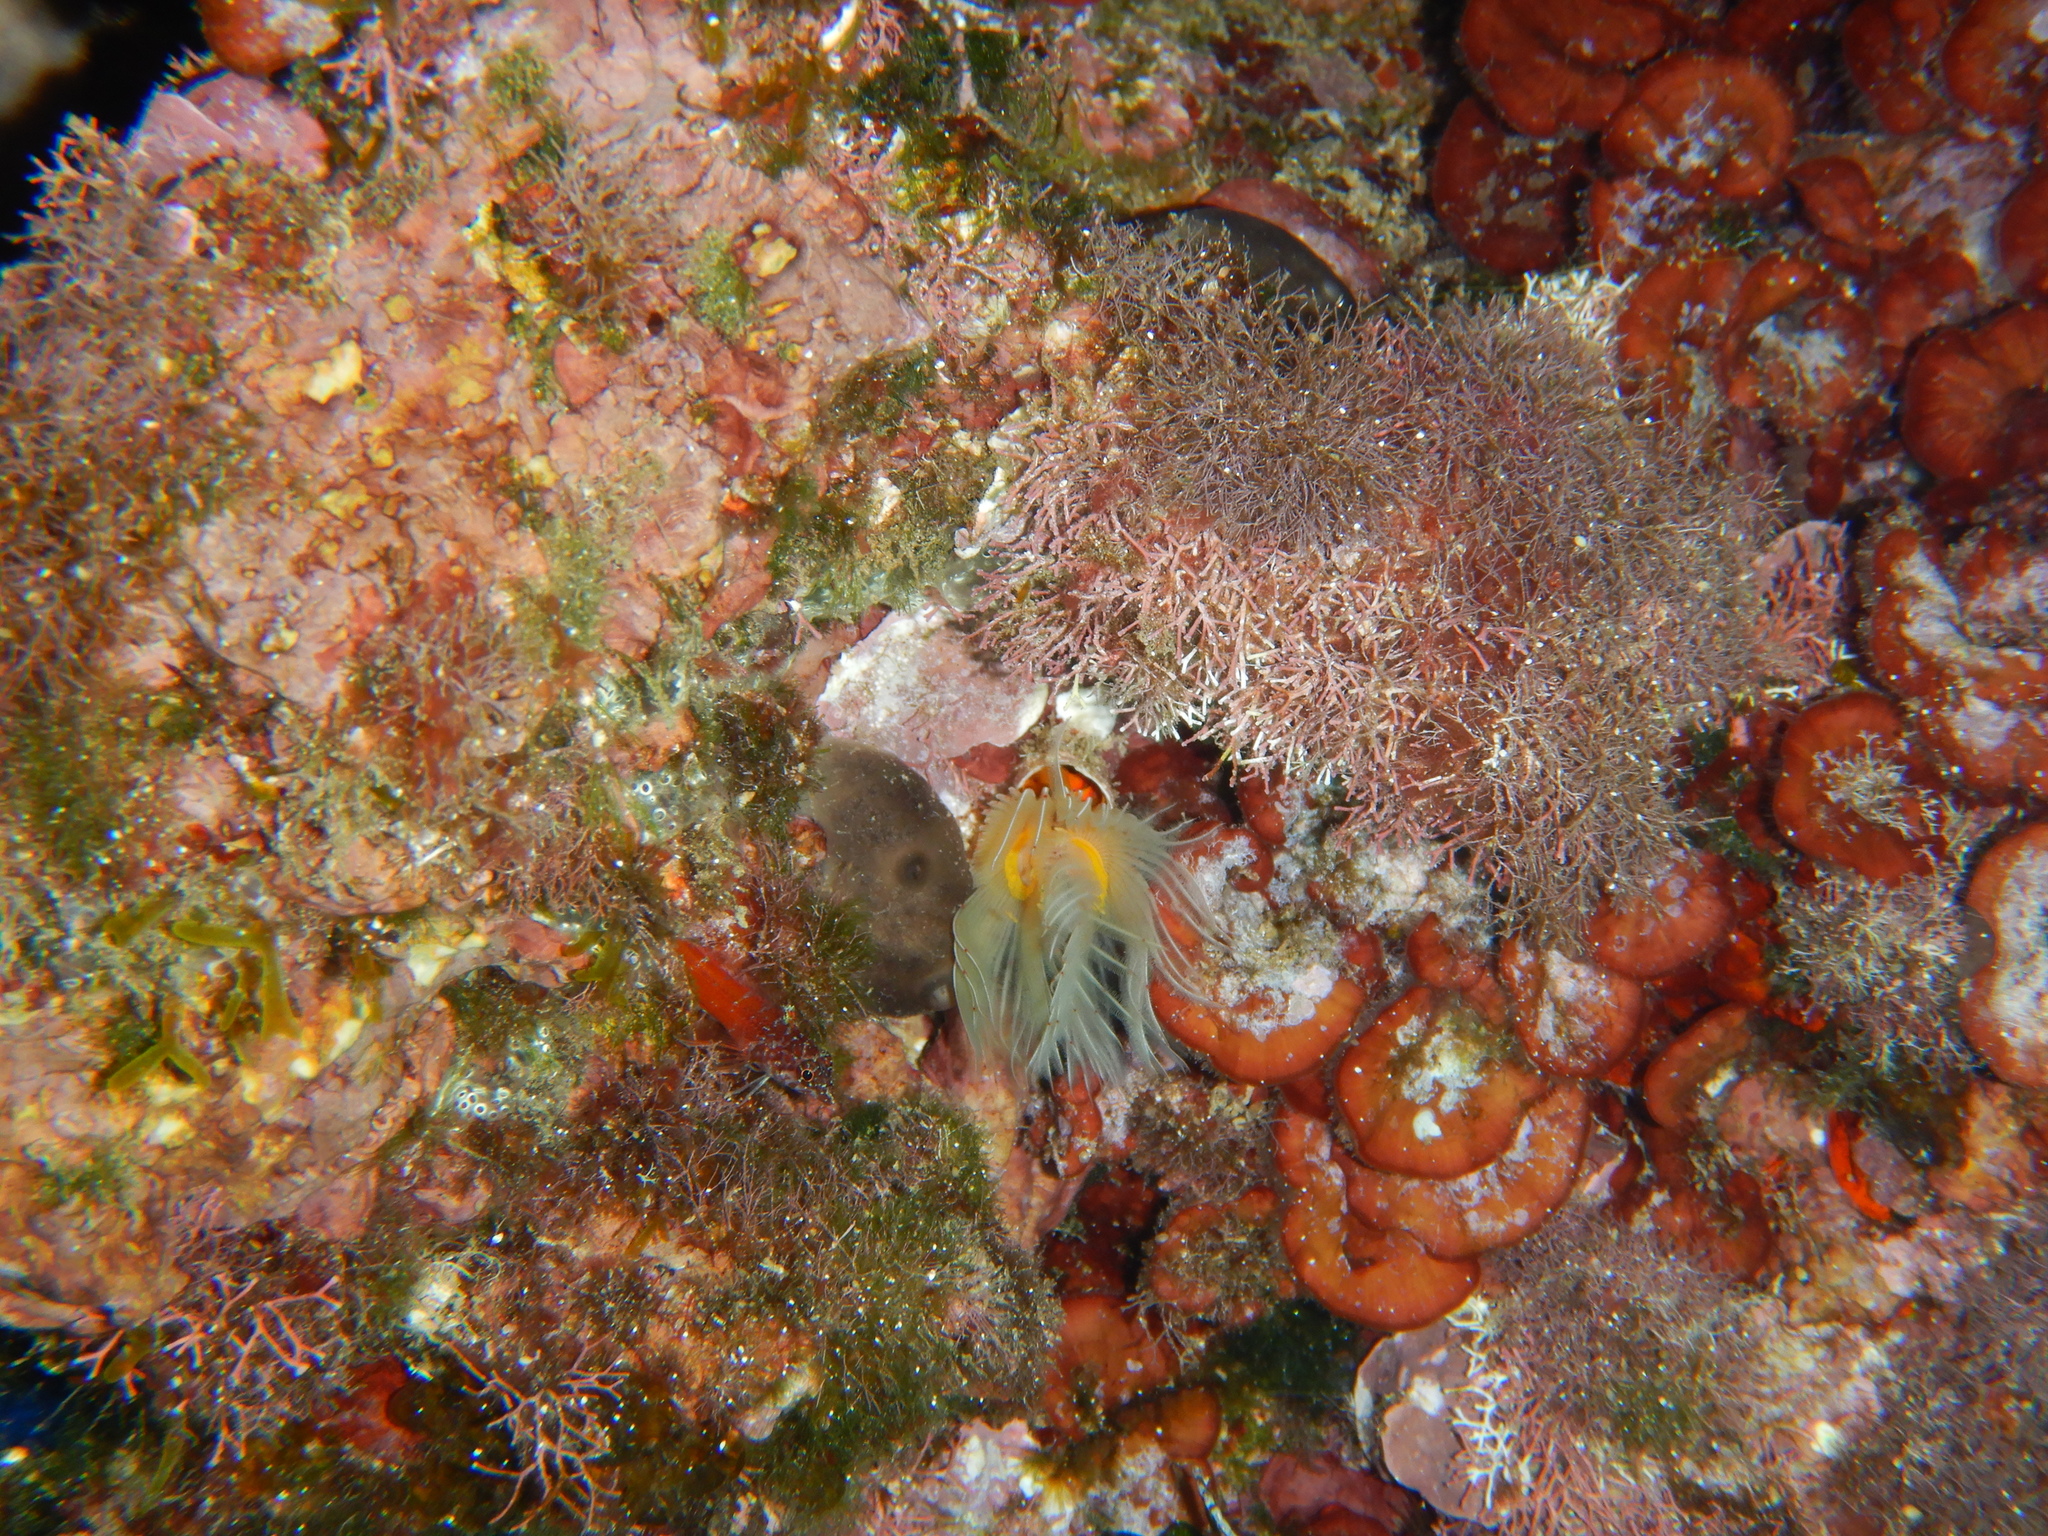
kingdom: Animalia
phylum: Annelida
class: Polychaeta
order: Sabellida
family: Serpulidae
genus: Protula
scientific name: Protula tubularia
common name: Red-spotted horseshoe
